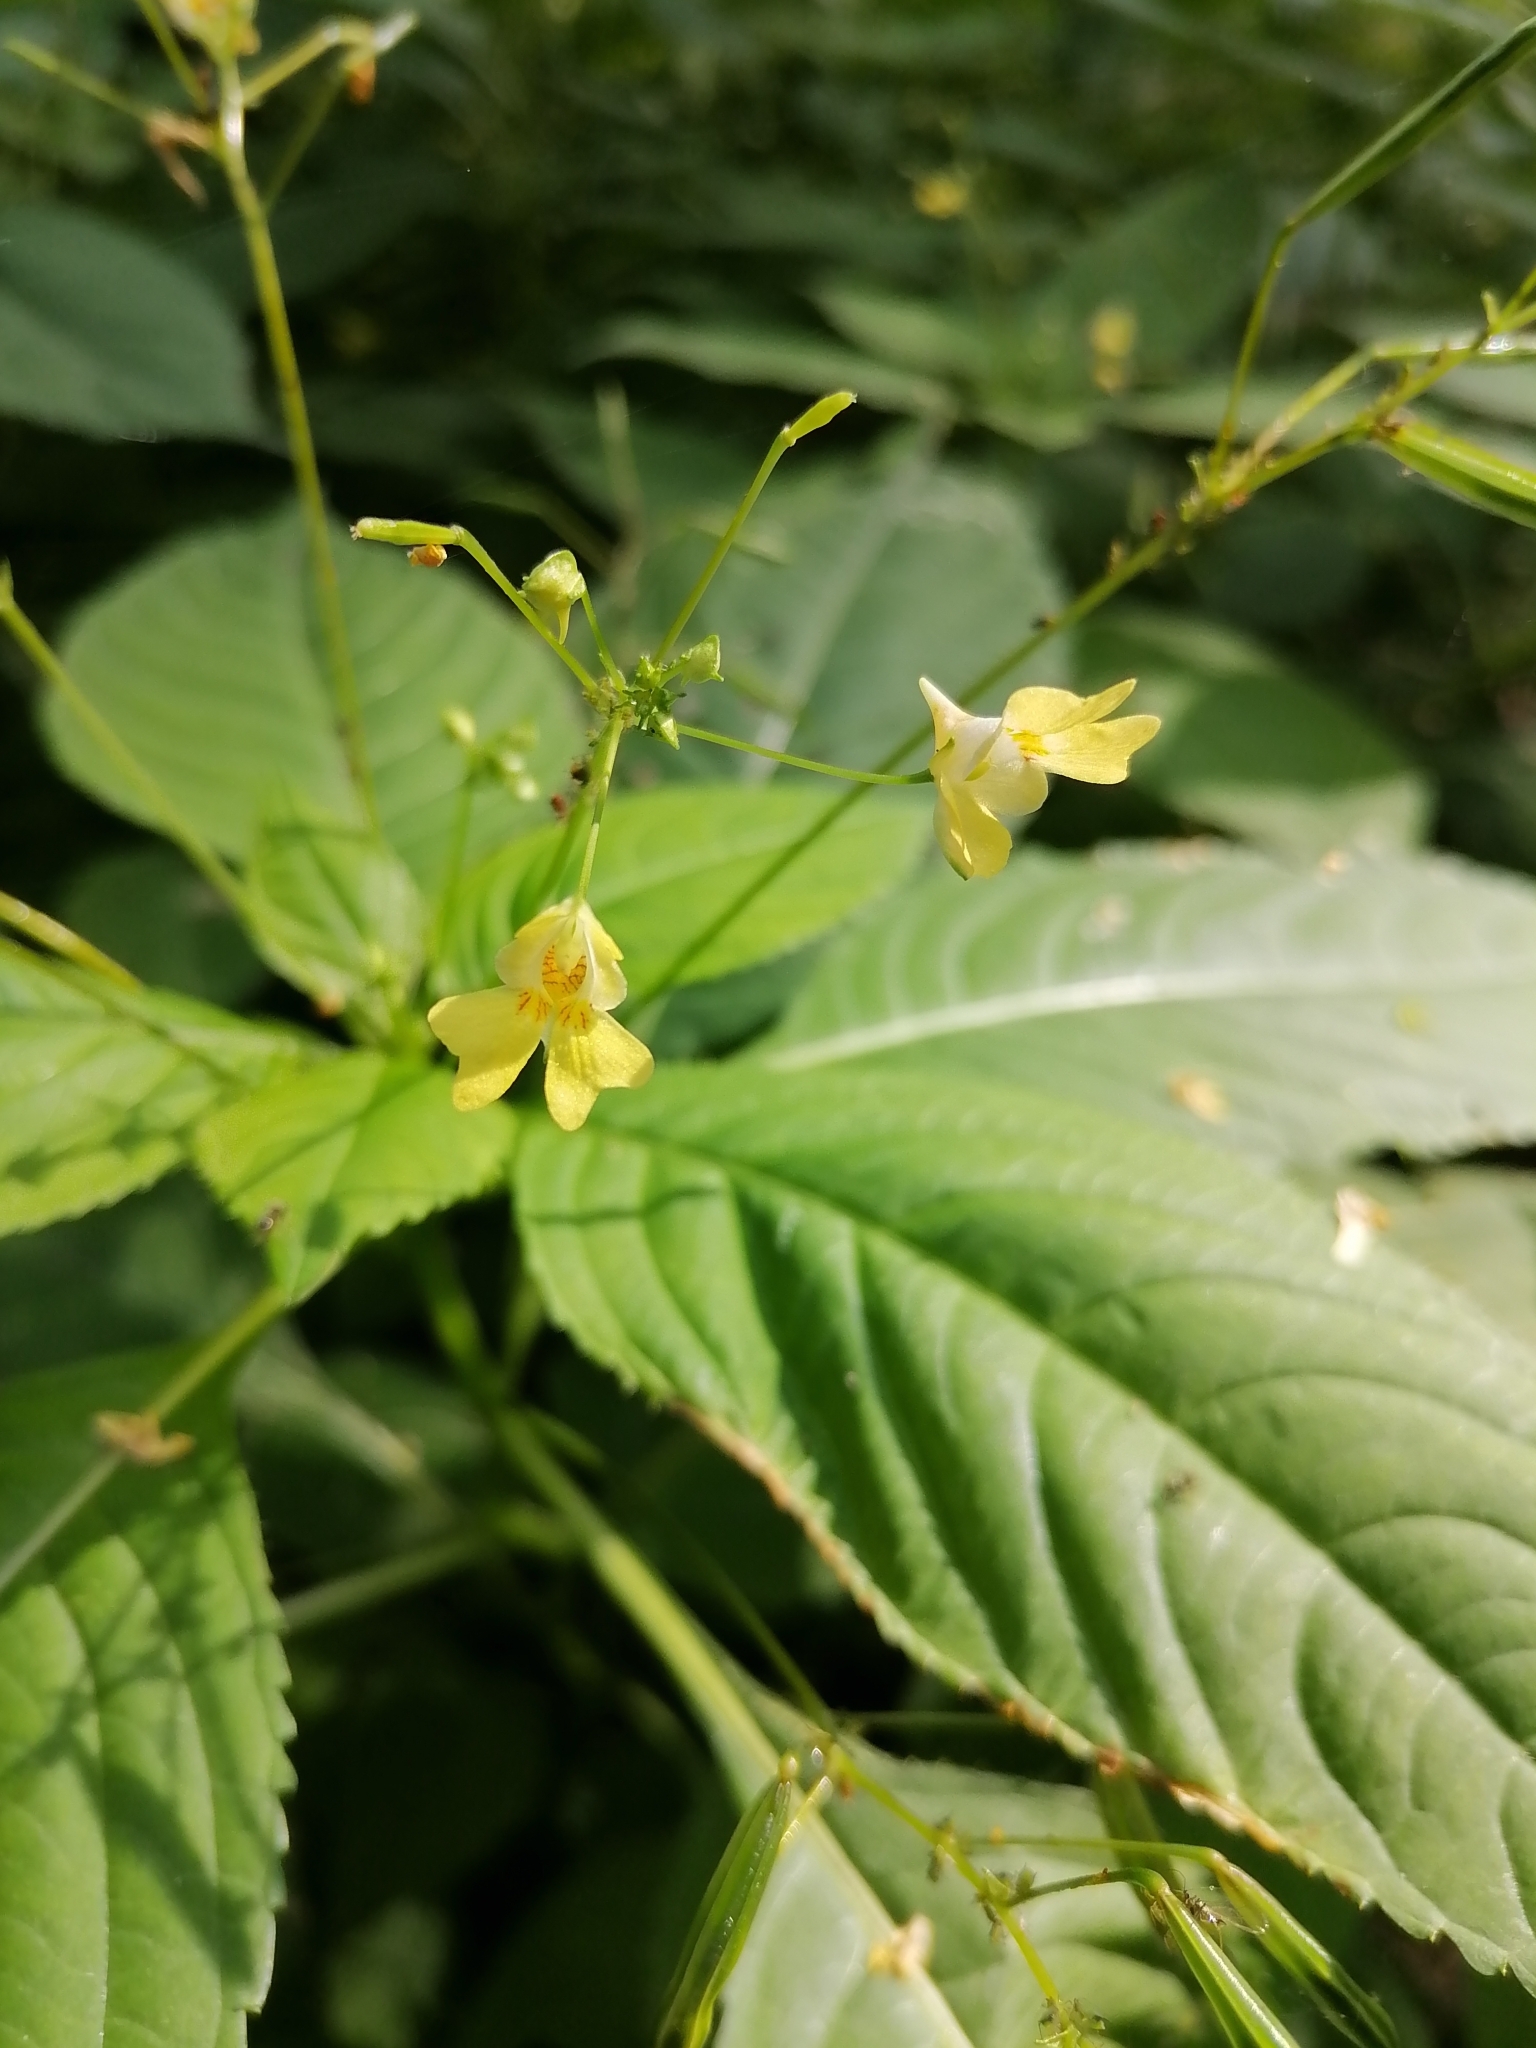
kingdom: Plantae
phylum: Tracheophyta
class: Magnoliopsida
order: Ericales
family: Balsaminaceae
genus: Impatiens
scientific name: Impatiens parviflora
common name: Small balsam
